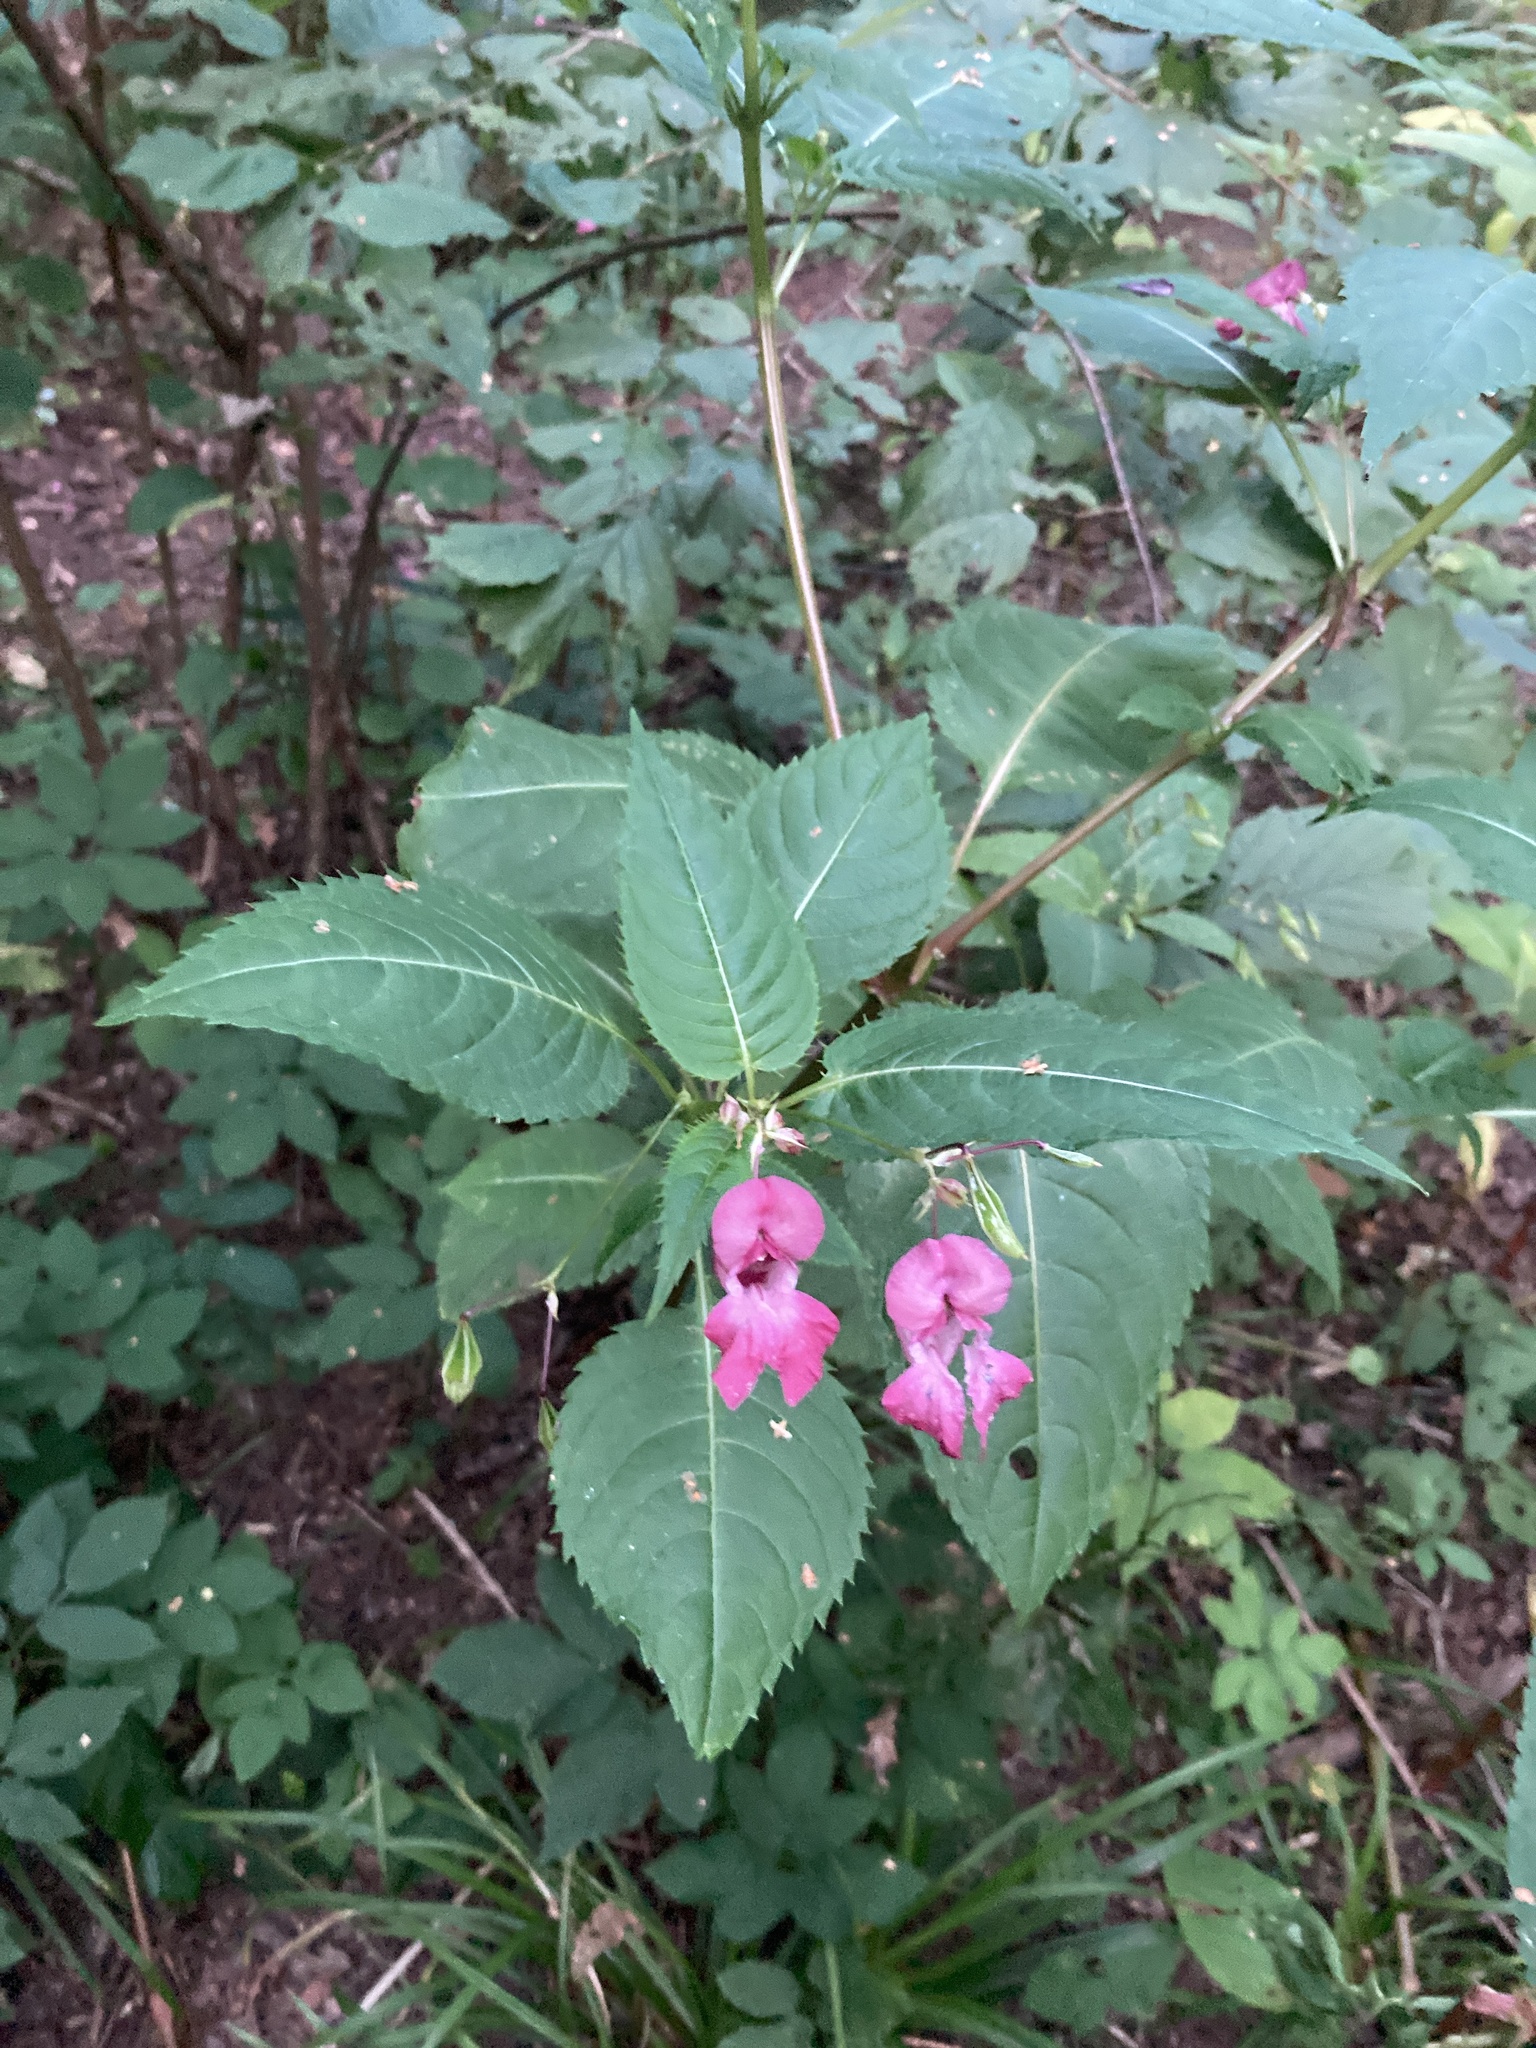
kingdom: Plantae
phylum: Tracheophyta
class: Magnoliopsida
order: Ericales
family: Balsaminaceae
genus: Impatiens
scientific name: Impatiens glandulifera
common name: Himalayan balsam
